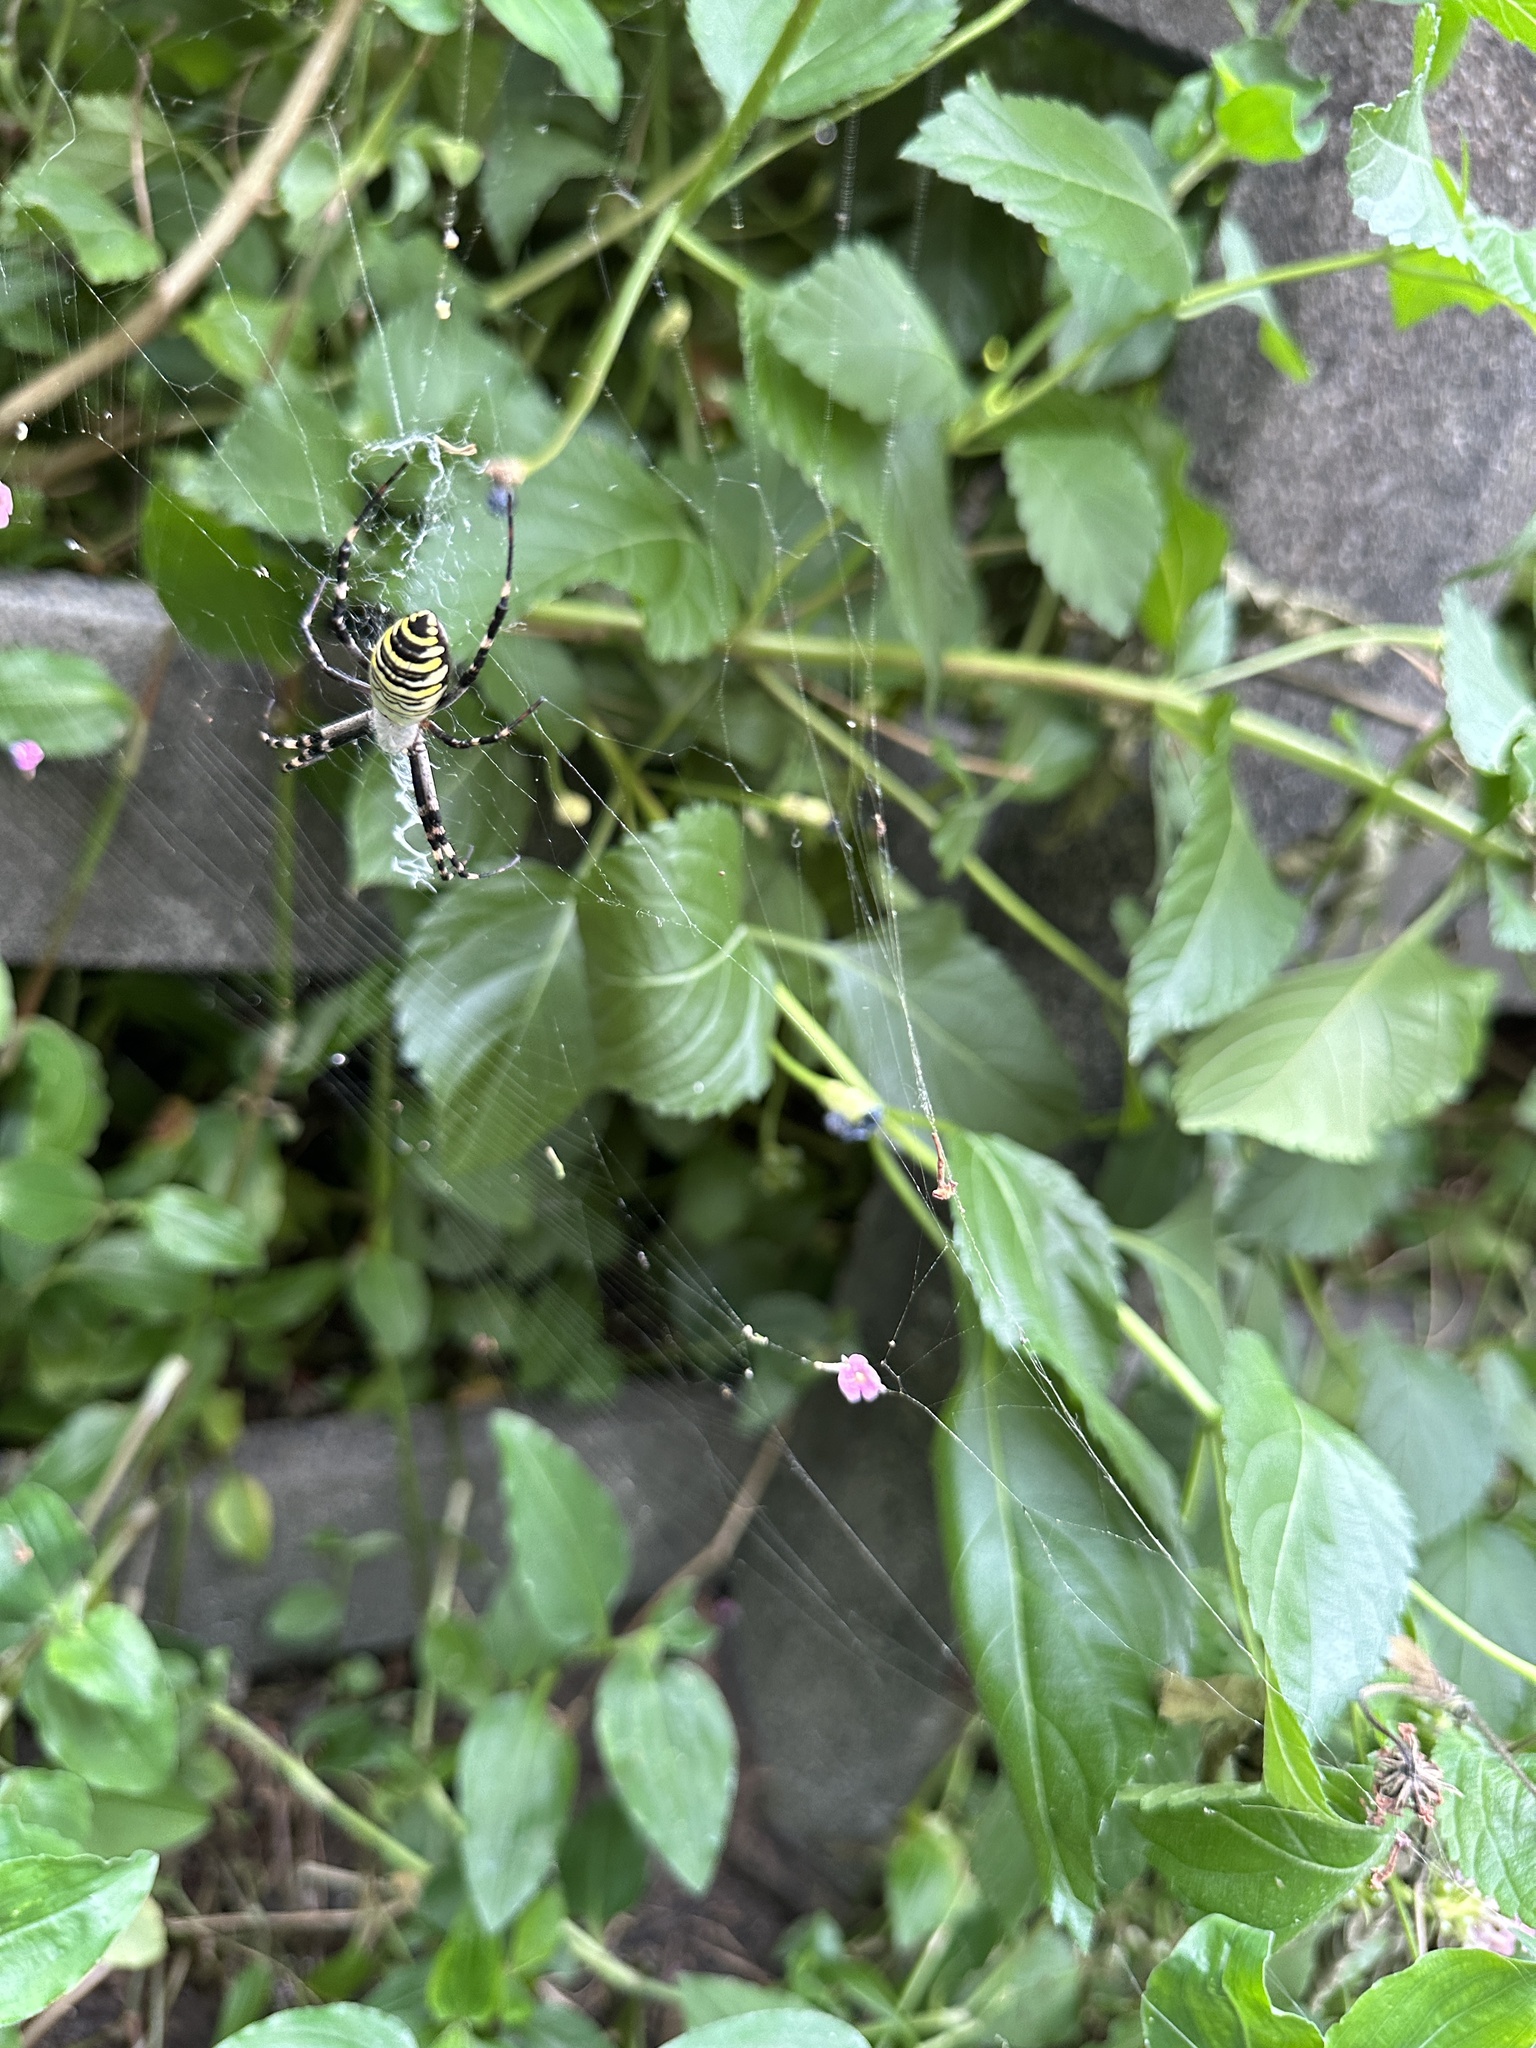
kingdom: Animalia
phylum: Arthropoda
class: Arachnida
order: Araneae
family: Araneidae
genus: Argiope
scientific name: Argiope bruennichi
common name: Wasp spider
